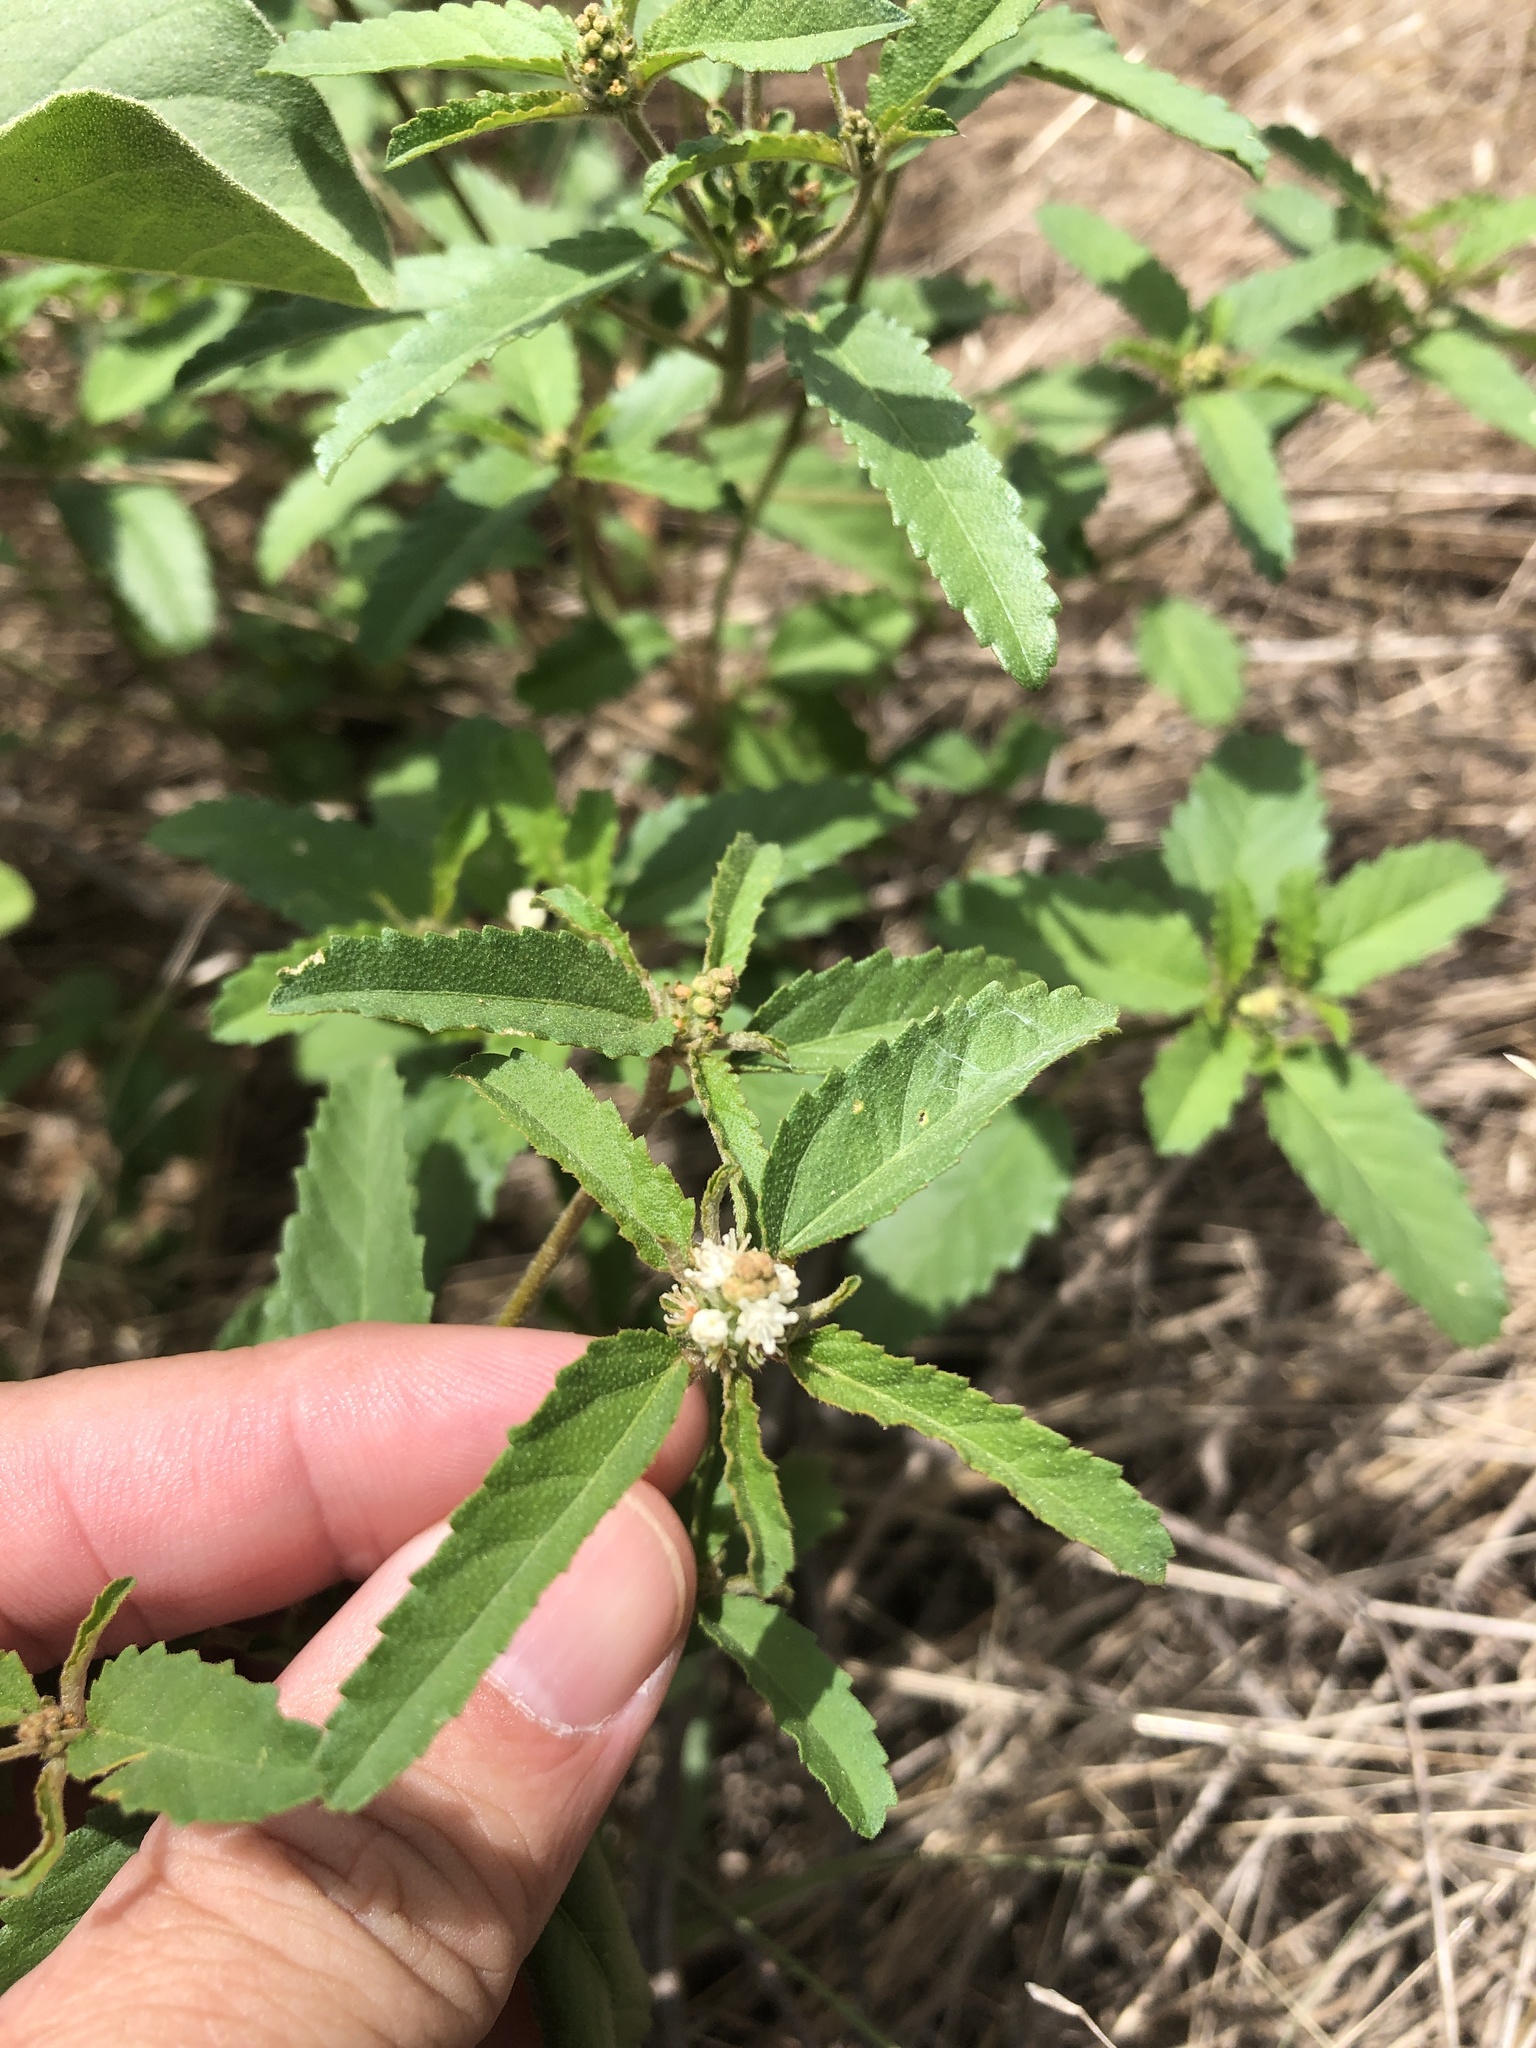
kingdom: Plantae
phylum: Tracheophyta
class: Magnoliopsida
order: Malpighiales
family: Euphorbiaceae
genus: Croton
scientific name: Croton glandulosus
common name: Tropic croton
